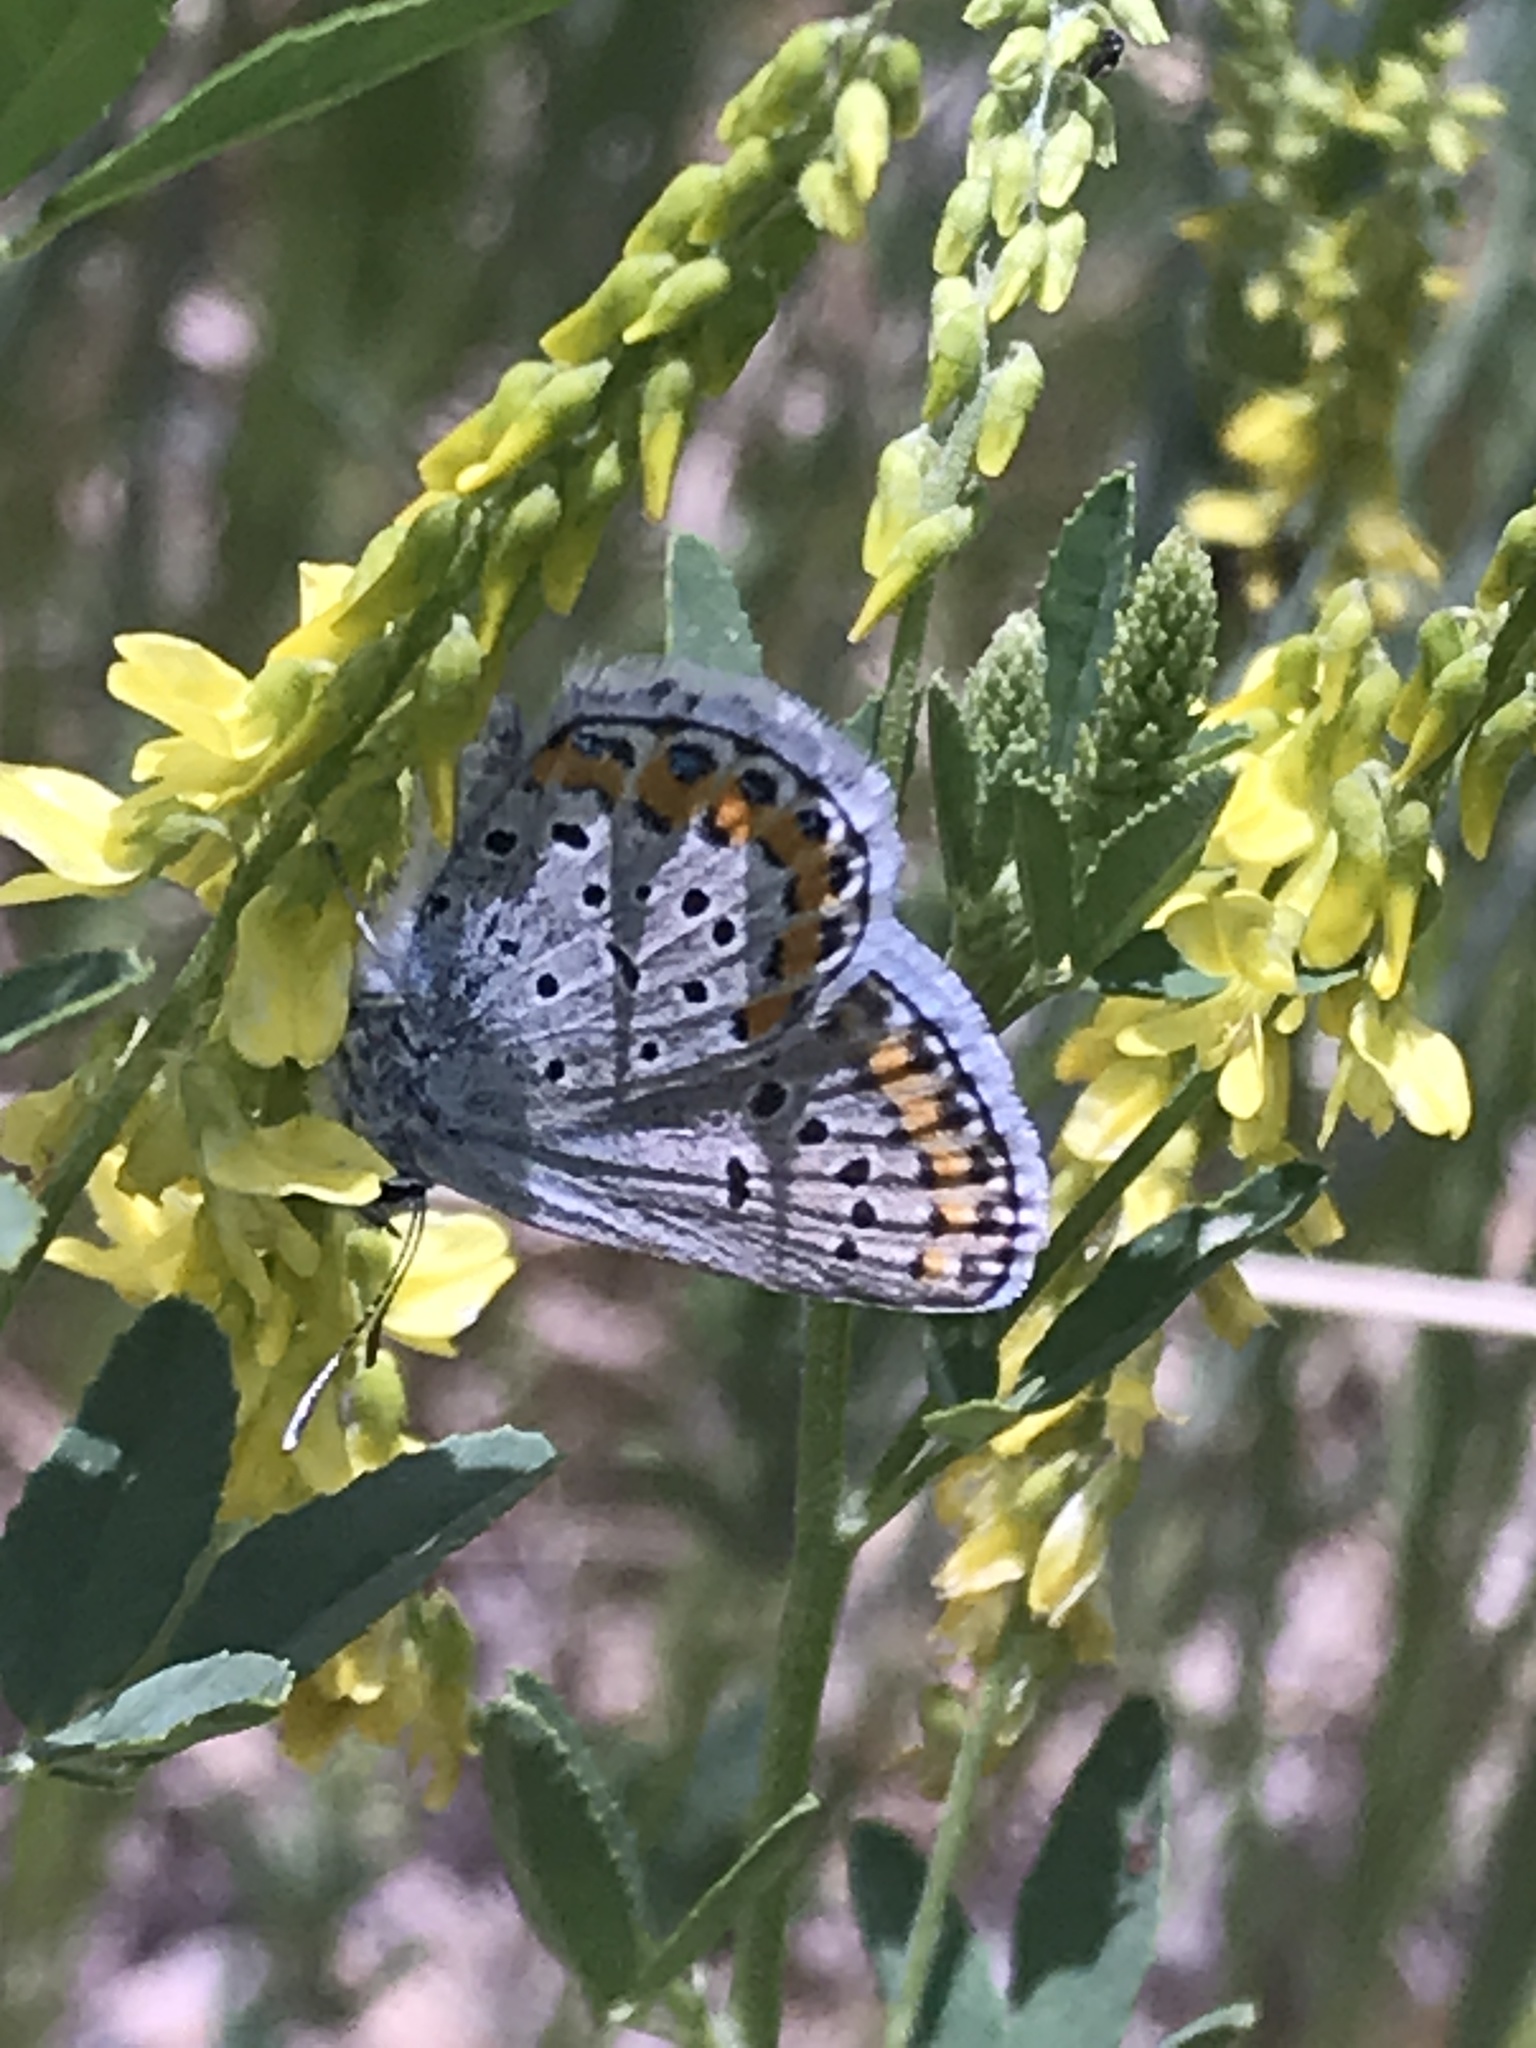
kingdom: Animalia
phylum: Arthropoda
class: Insecta
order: Lepidoptera
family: Lycaenidae
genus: Lycaeides
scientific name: Lycaeides melissa
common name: Melissa blue
